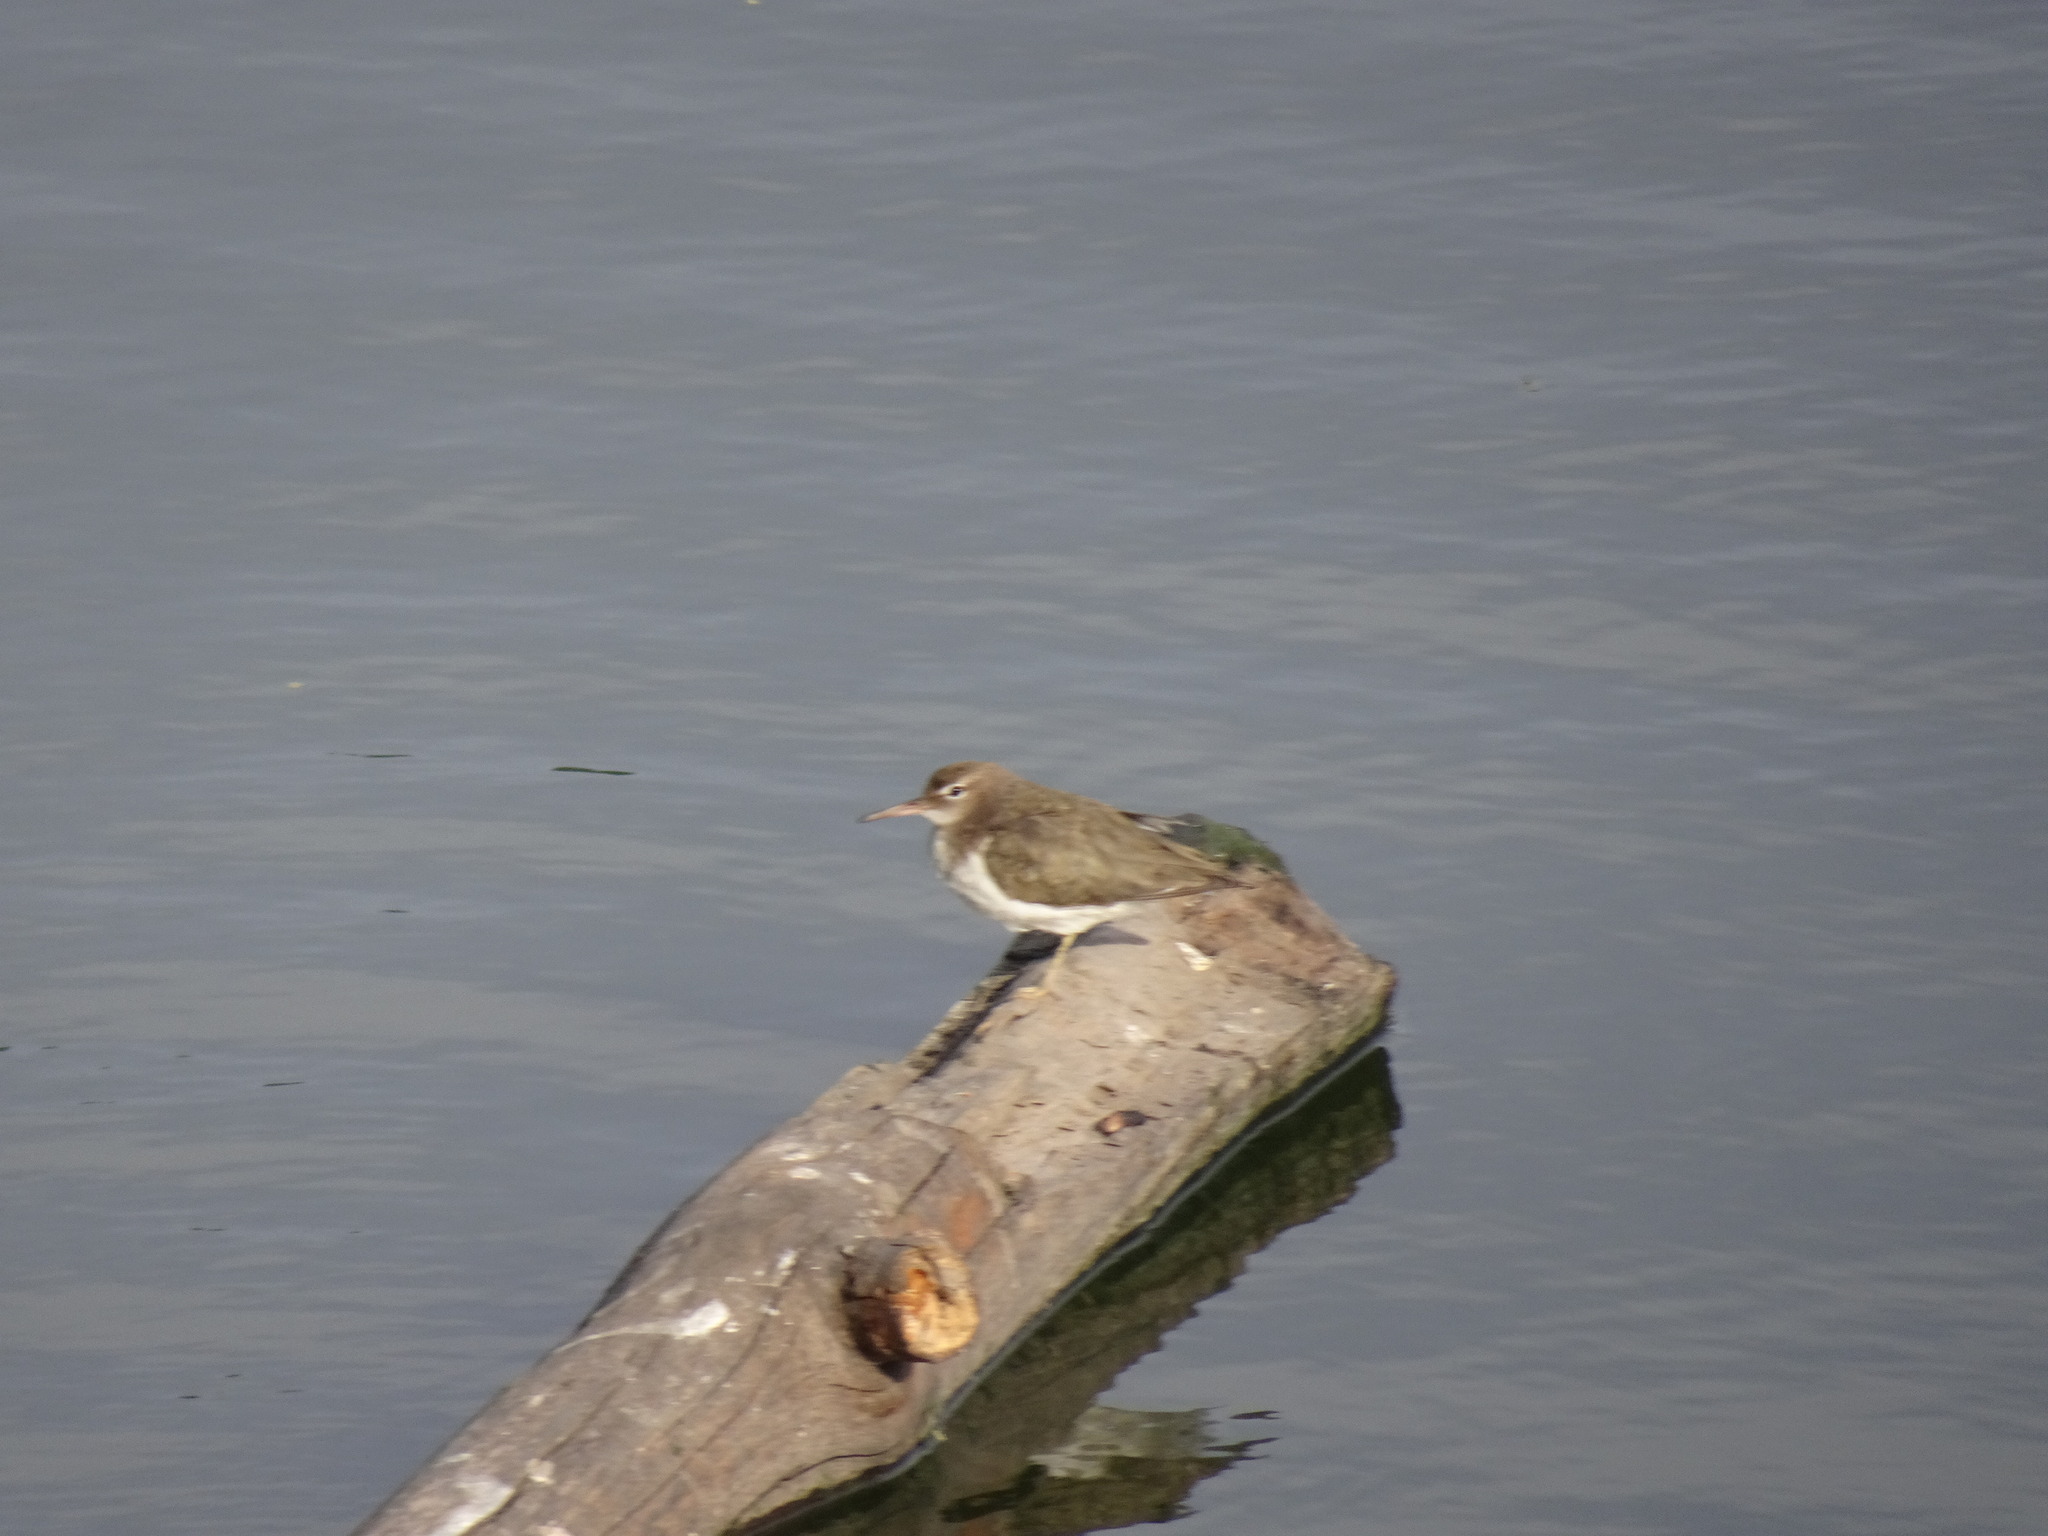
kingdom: Animalia
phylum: Chordata
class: Aves
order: Charadriiformes
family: Scolopacidae
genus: Actitis
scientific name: Actitis macularius
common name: Spotted sandpiper
